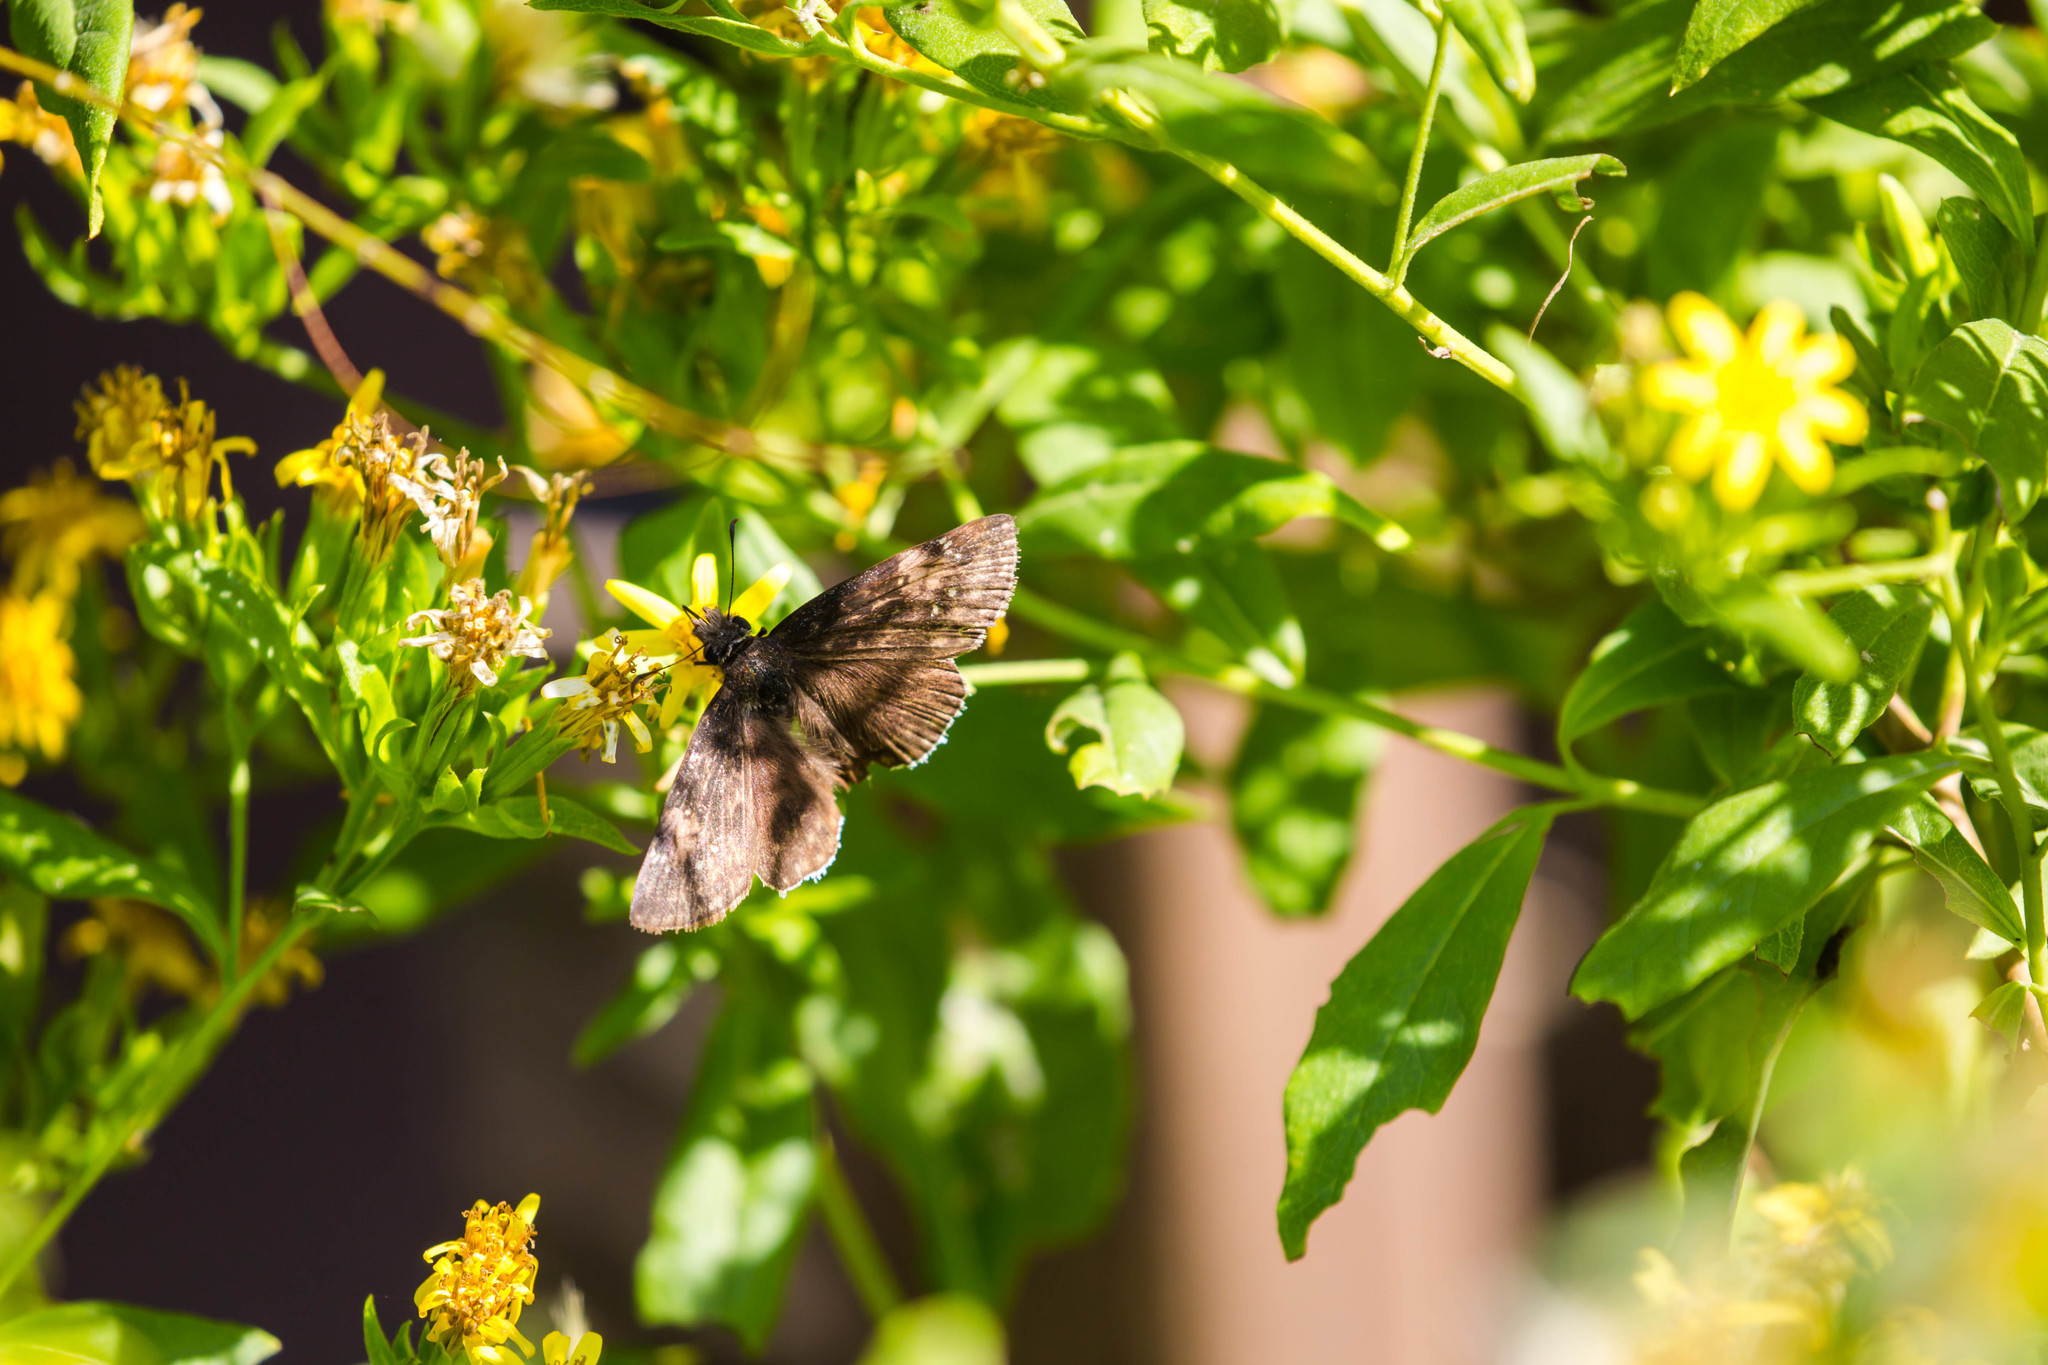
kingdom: Animalia
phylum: Arthropoda
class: Insecta
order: Lepidoptera
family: Hesperiidae
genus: Erynnis
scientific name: Erynnis funeralis
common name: Funereal duskywing
